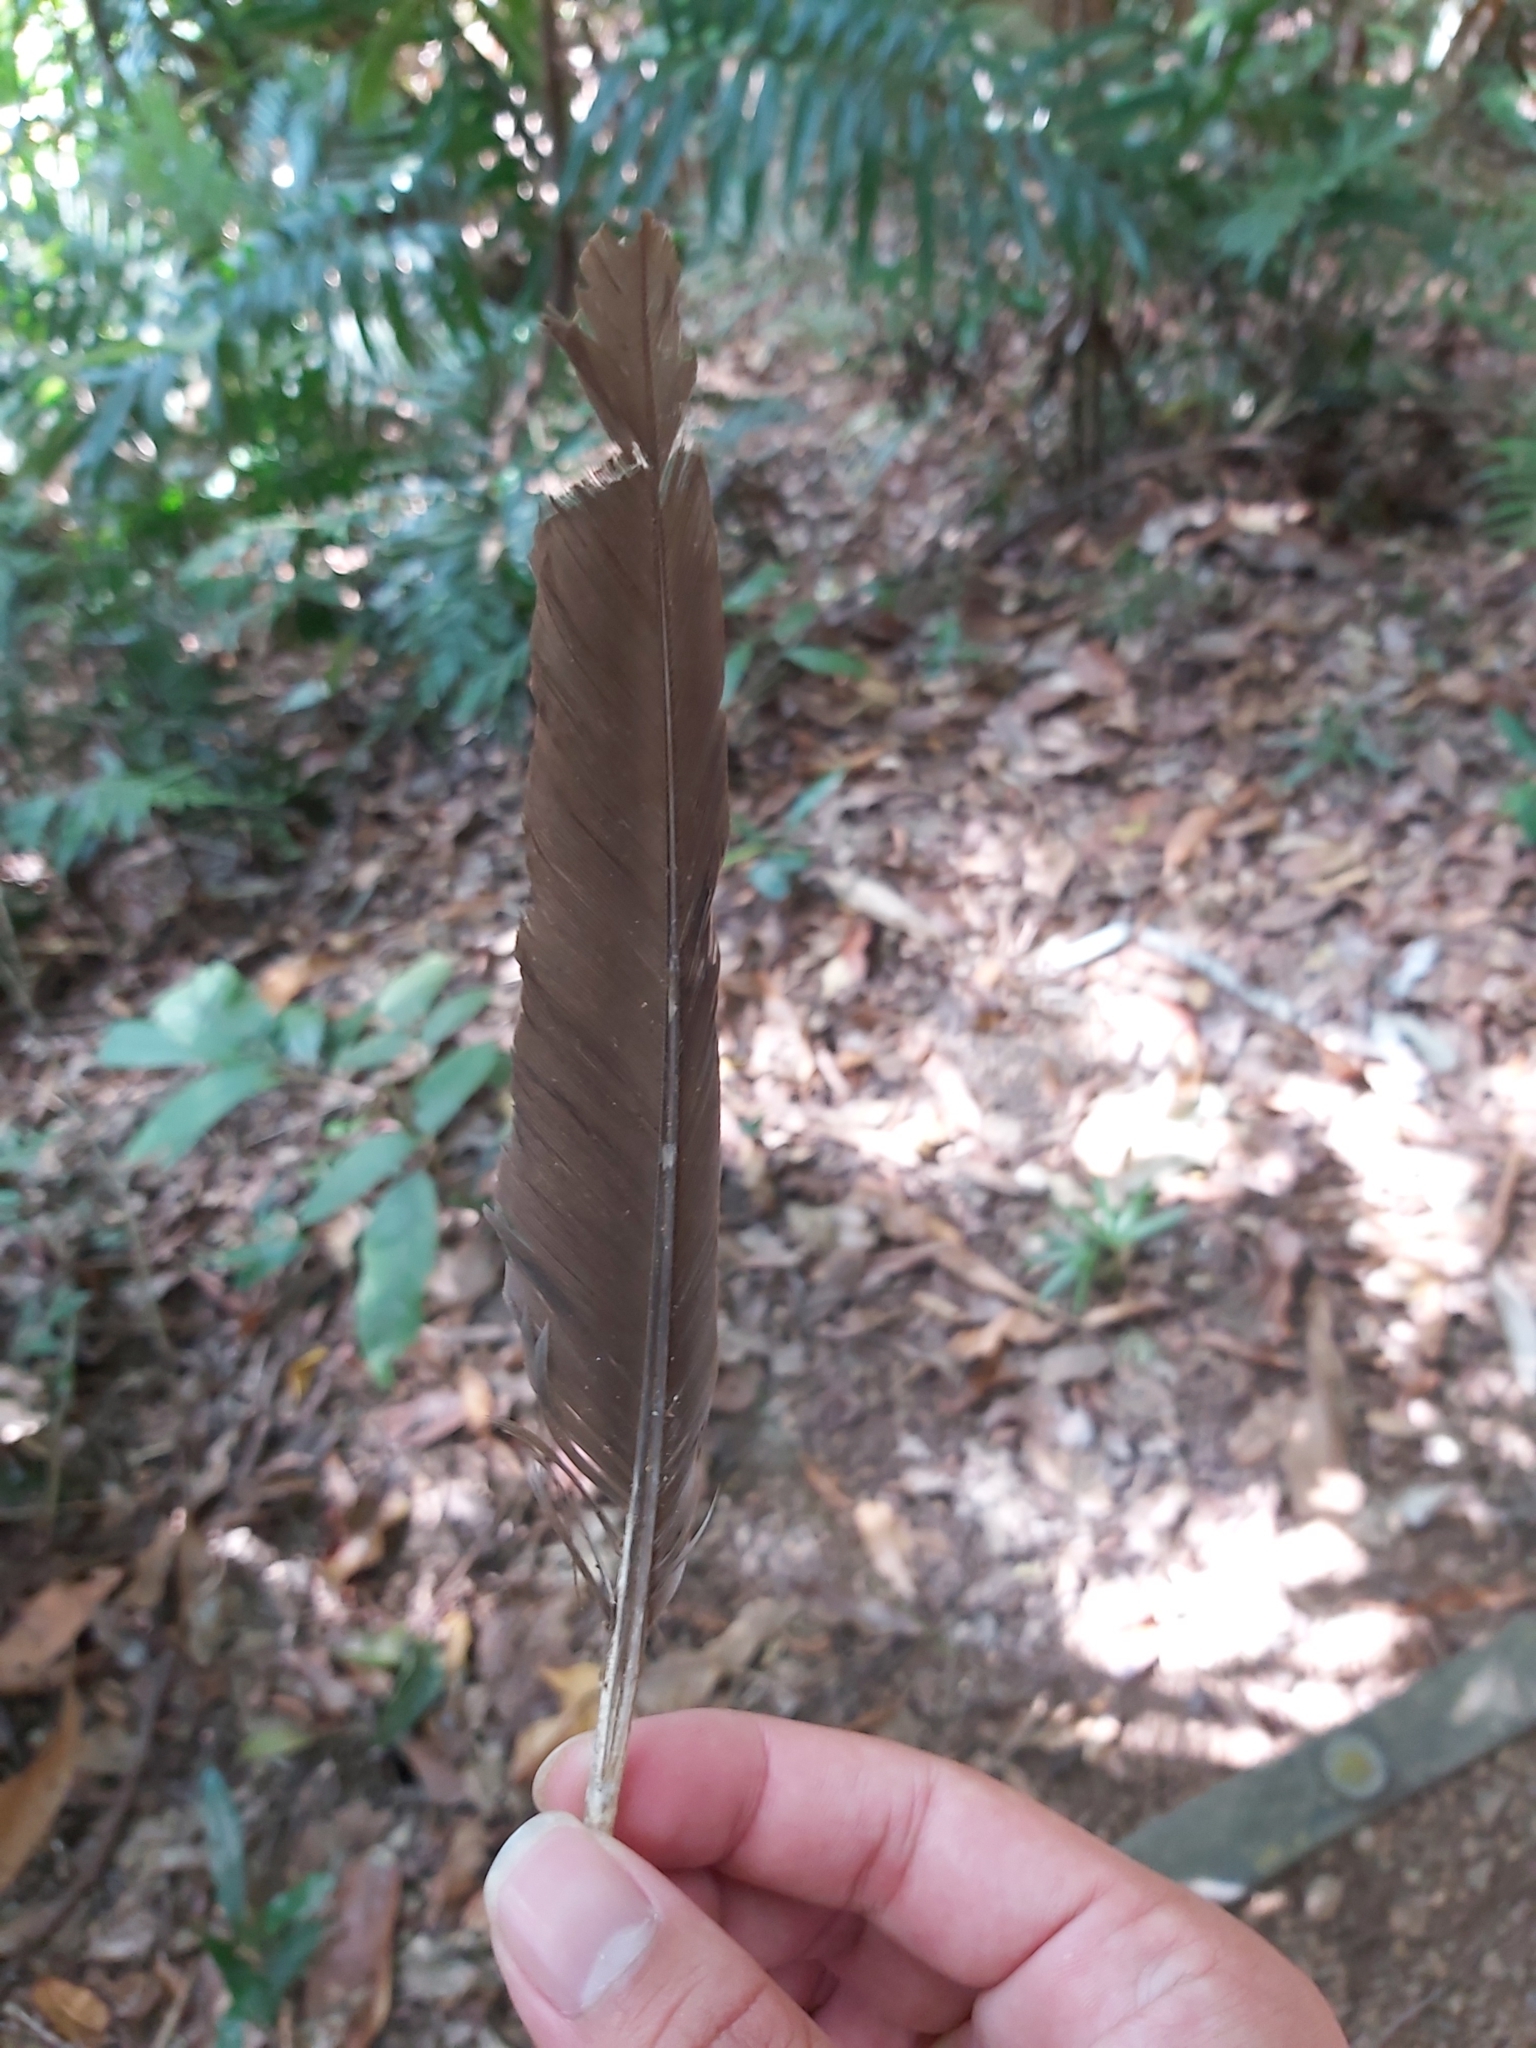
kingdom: Animalia
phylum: Chordata
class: Aves
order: Galliformes
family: Megapodiidae
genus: Megapodius
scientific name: Megapodius reinwardt
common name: Orange-footed scrubfowl
